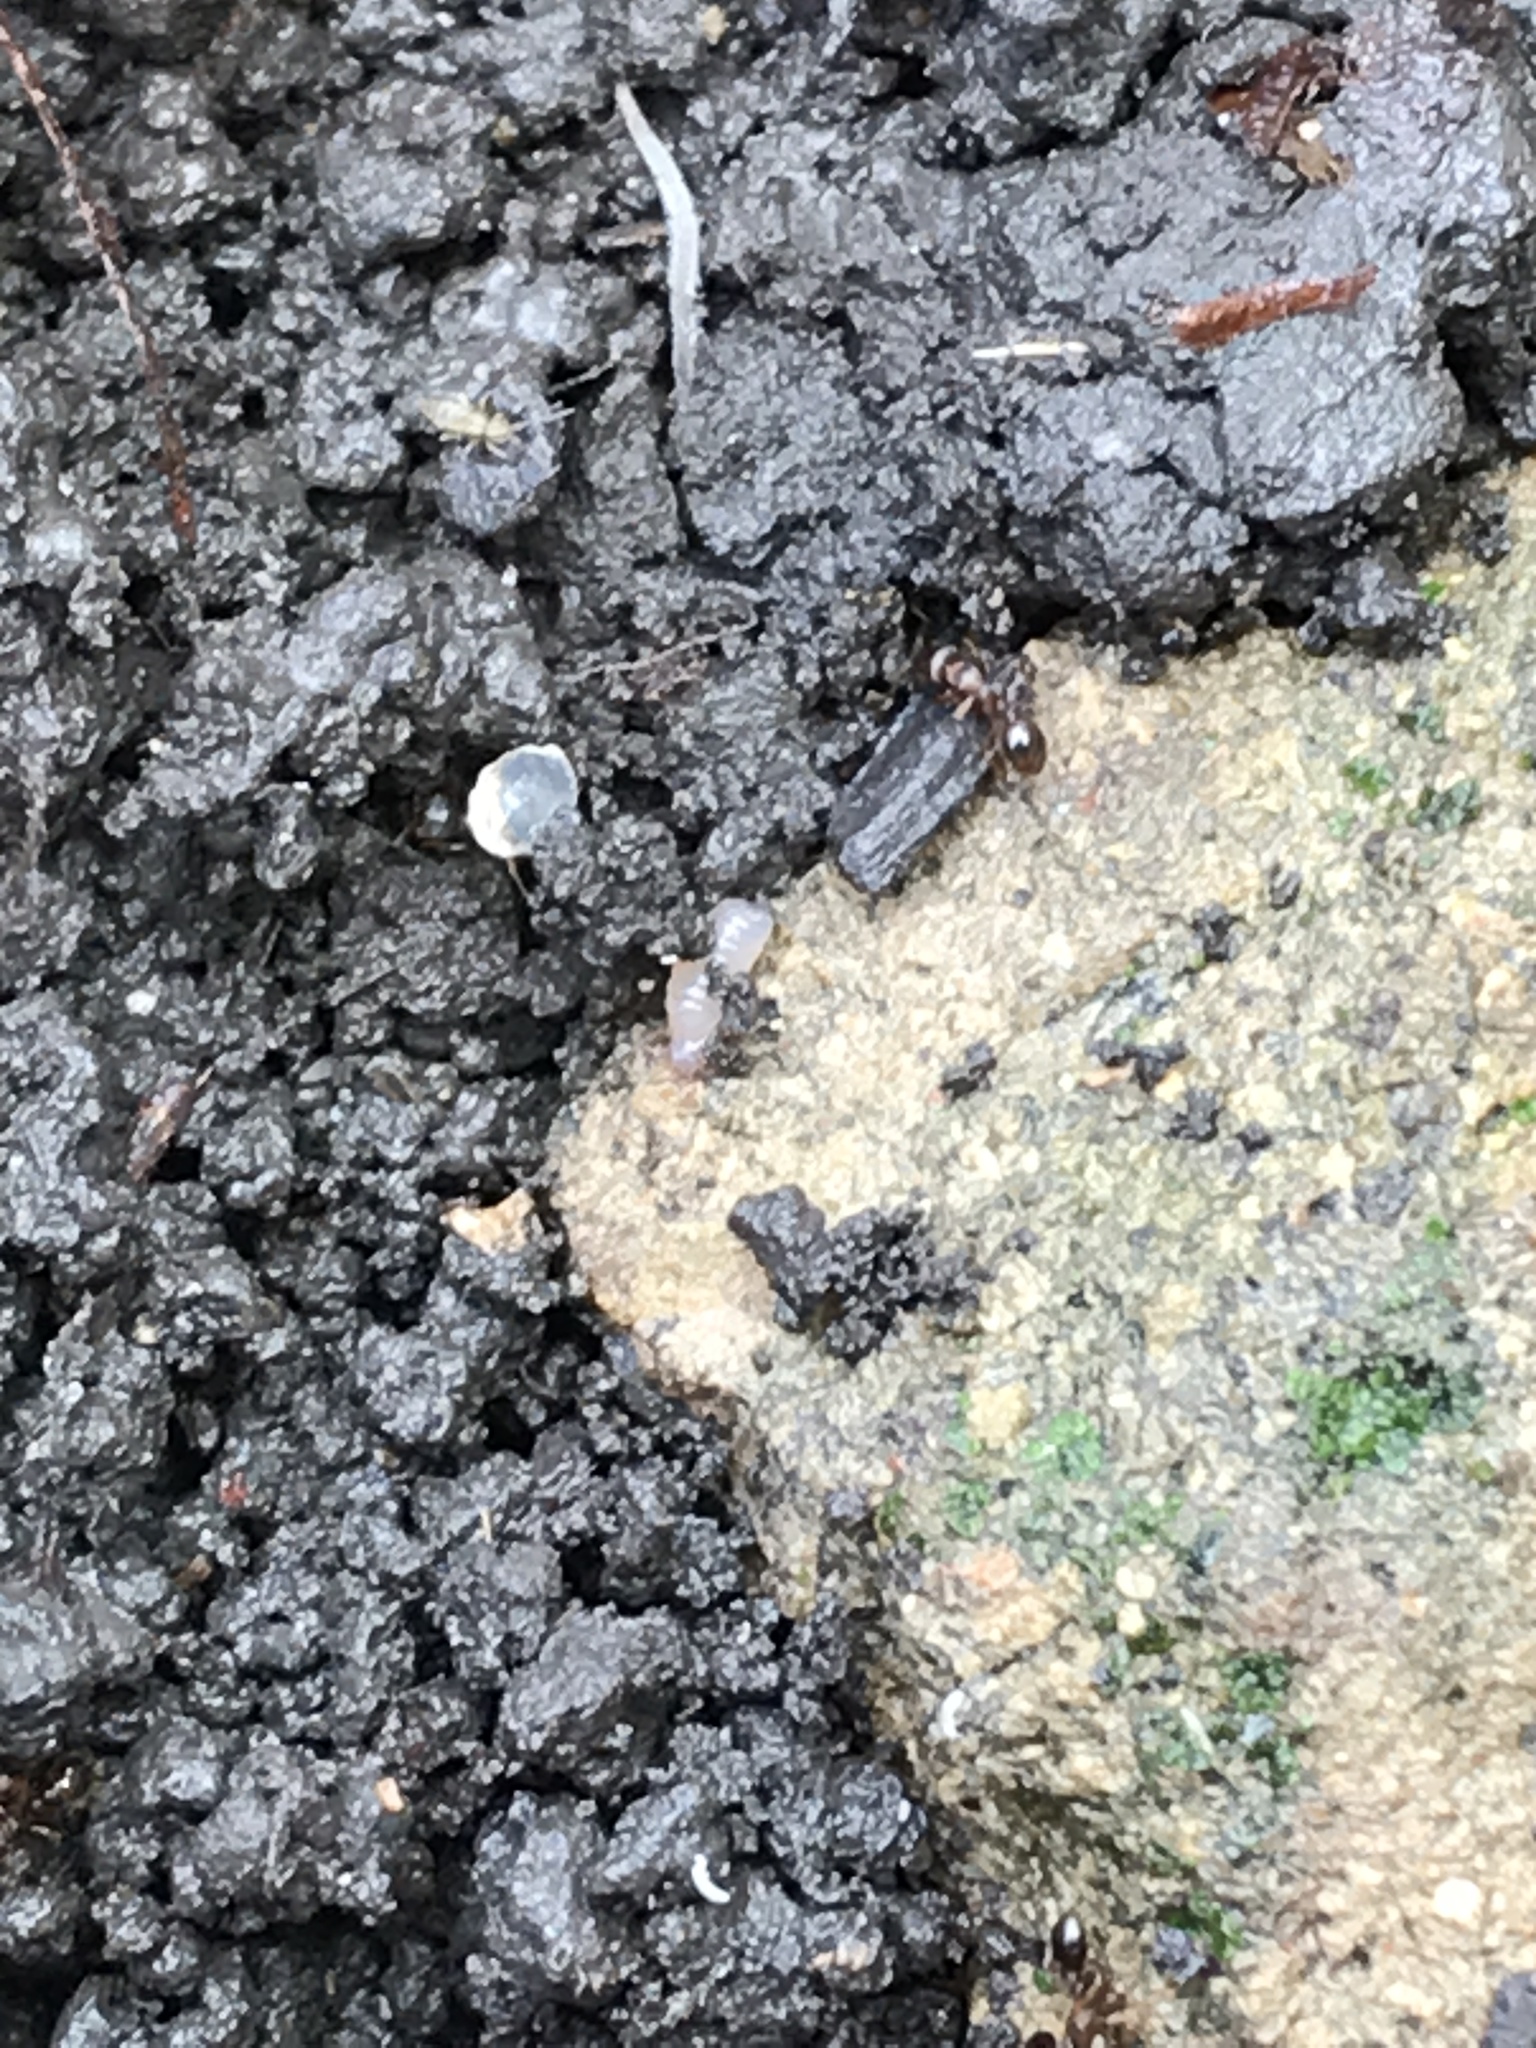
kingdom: Animalia
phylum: Arthropoda
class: Insecta
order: Hymenoptera
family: Formicidae
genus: Tetramorium
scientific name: Tetramorium immigrans
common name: Pavement ant
